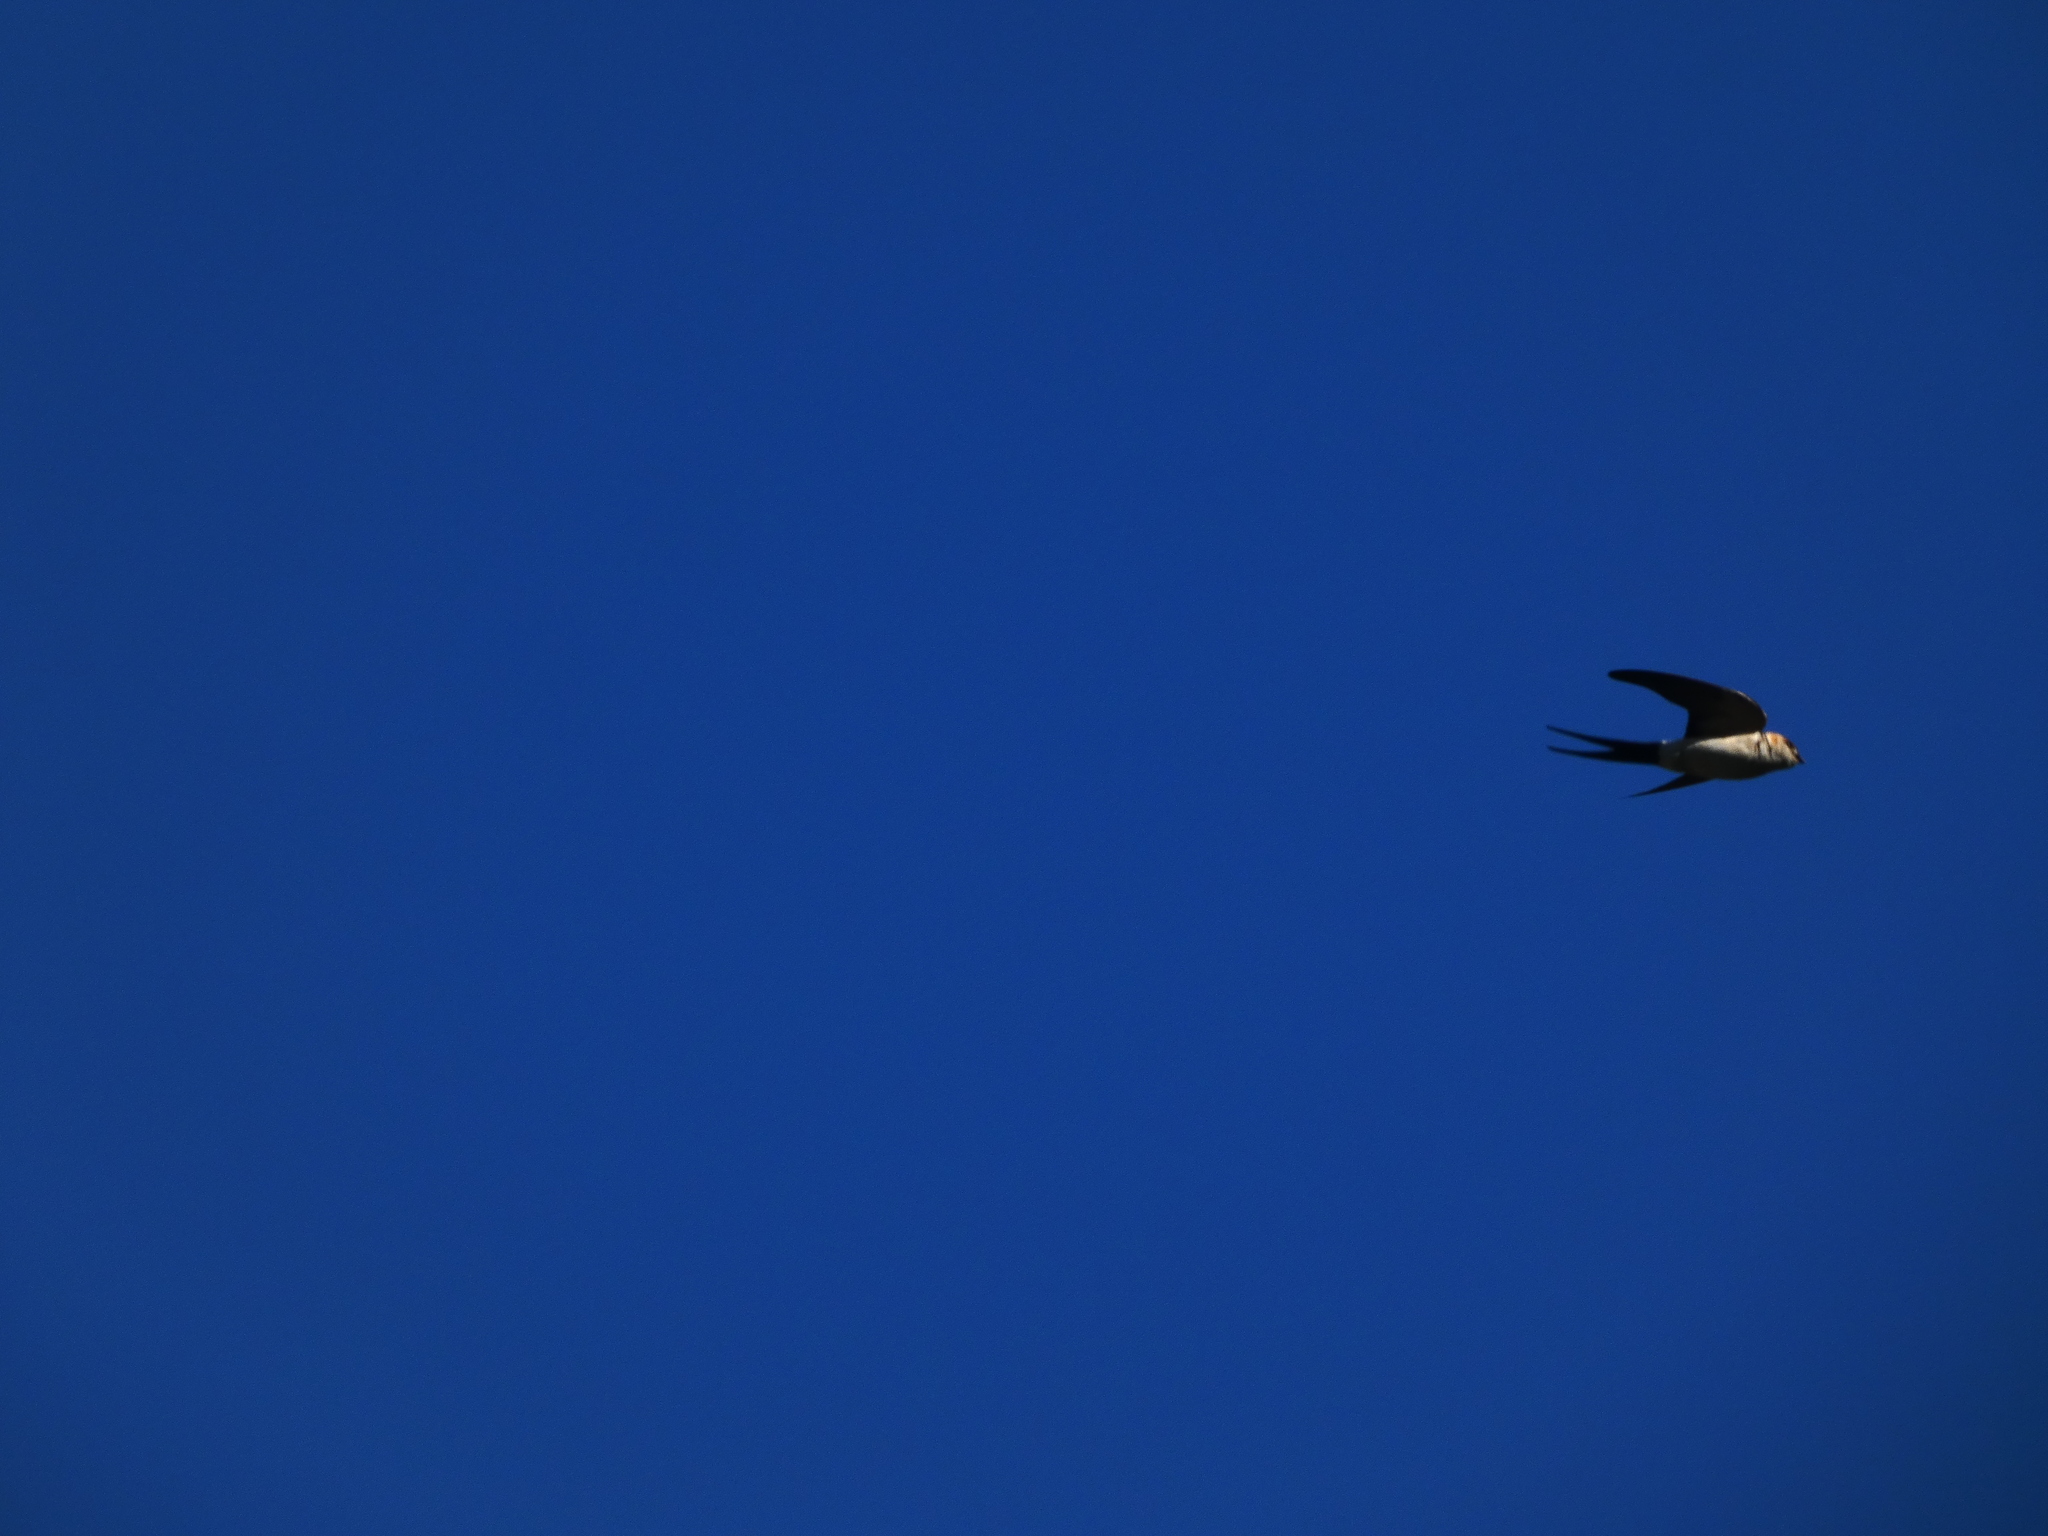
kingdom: Animalia
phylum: Chordata
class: Aves
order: Passeriformes
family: Hirundinidae
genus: Cecropis
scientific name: Cecropis daurica
